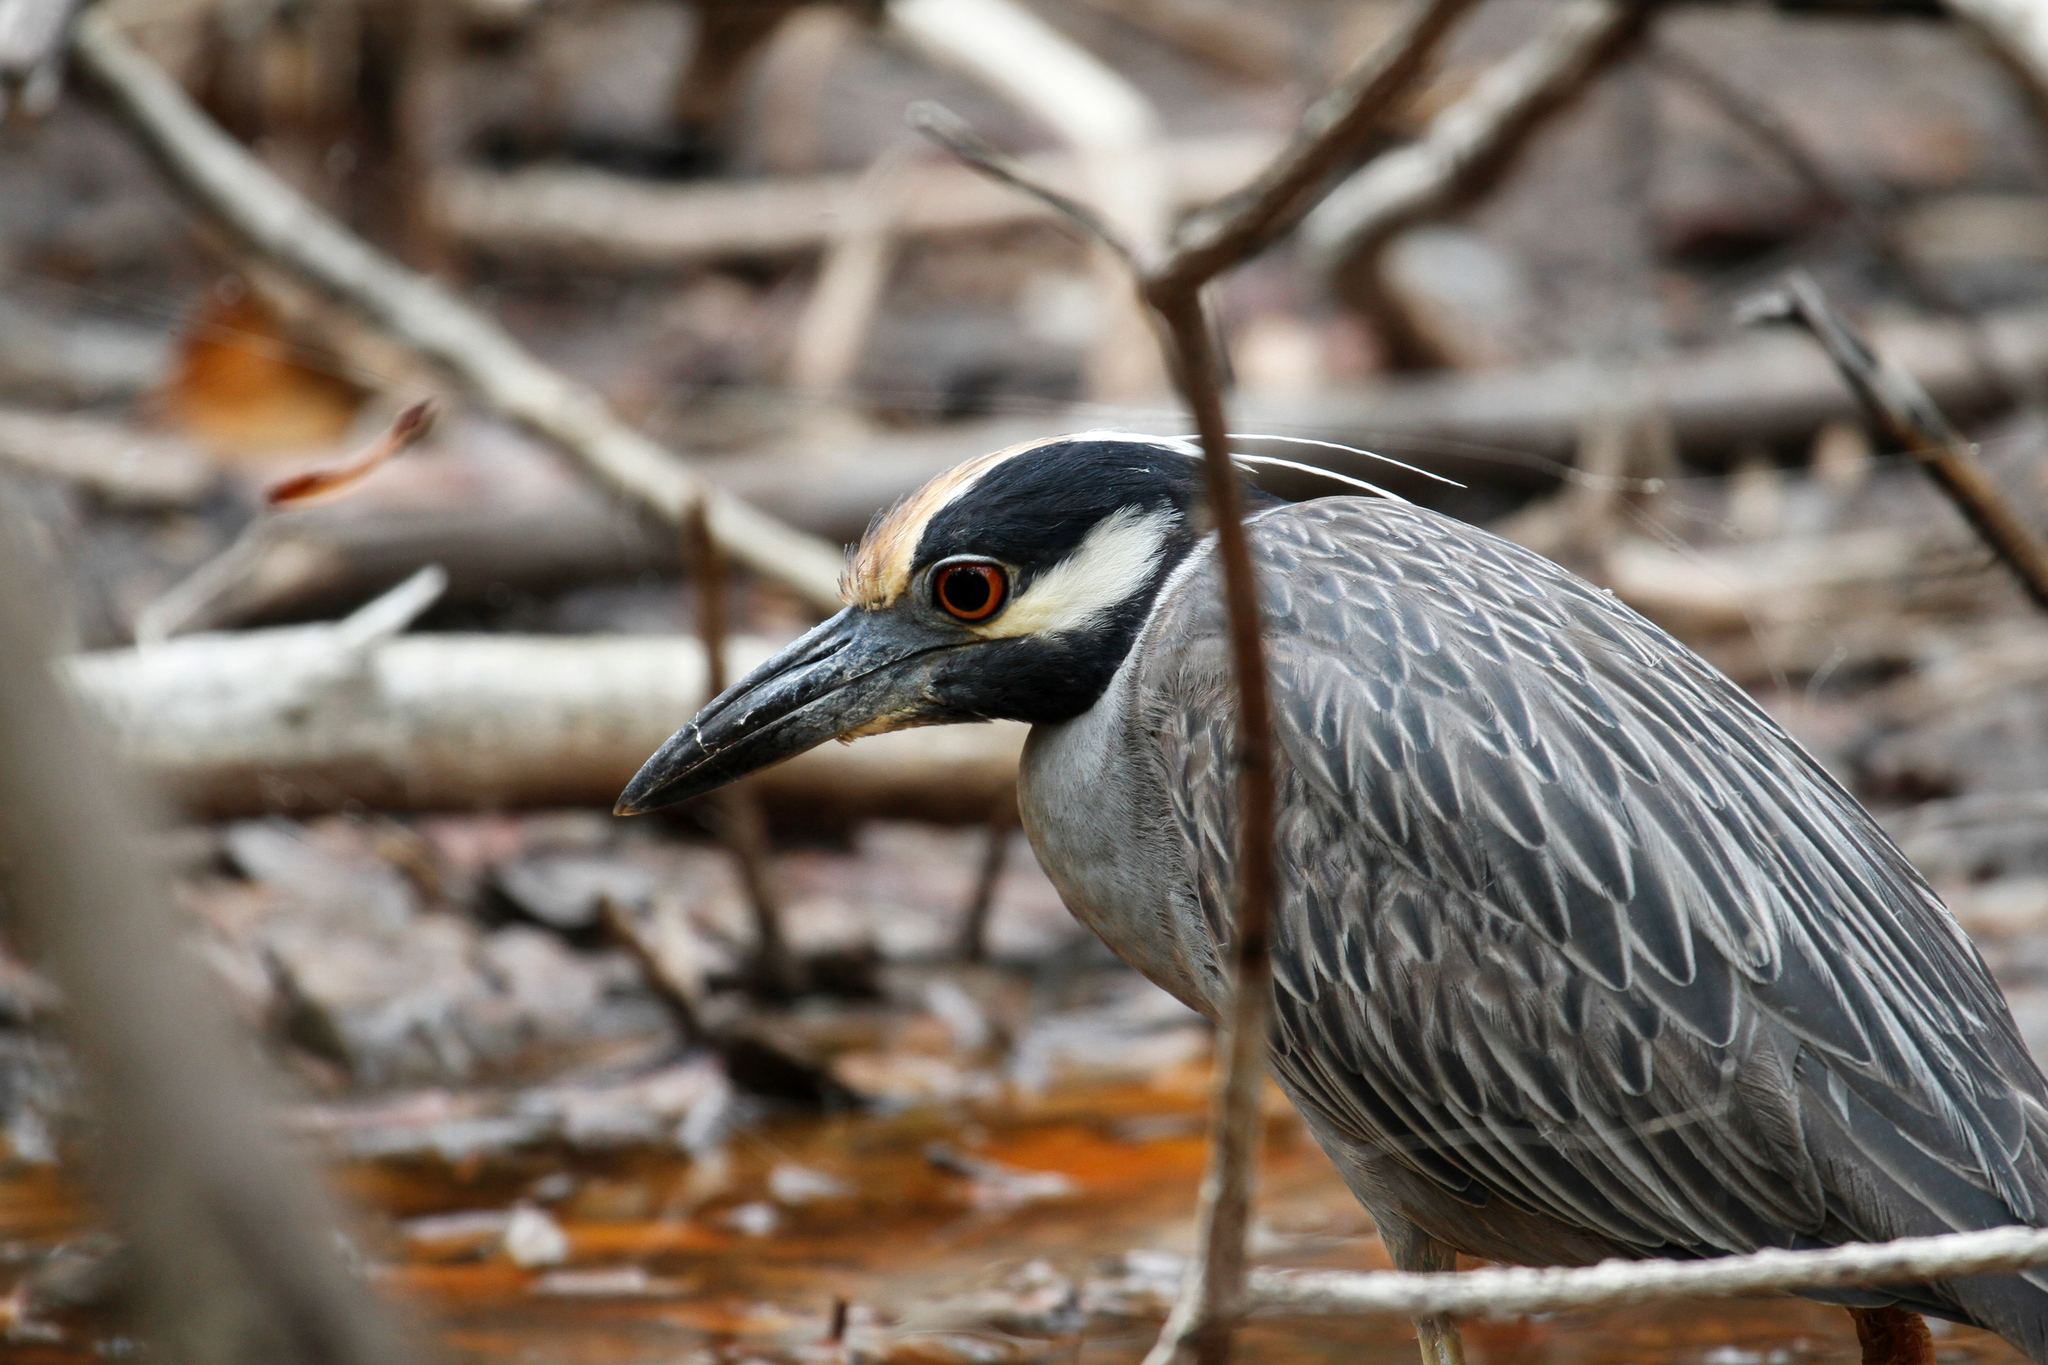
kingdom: Animalia
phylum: Chordata
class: Aves
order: Pelecaniformes
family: Ardeidae
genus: Nyctanassa
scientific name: Nyctanassa violacea
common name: Yellow-crowned night heron
